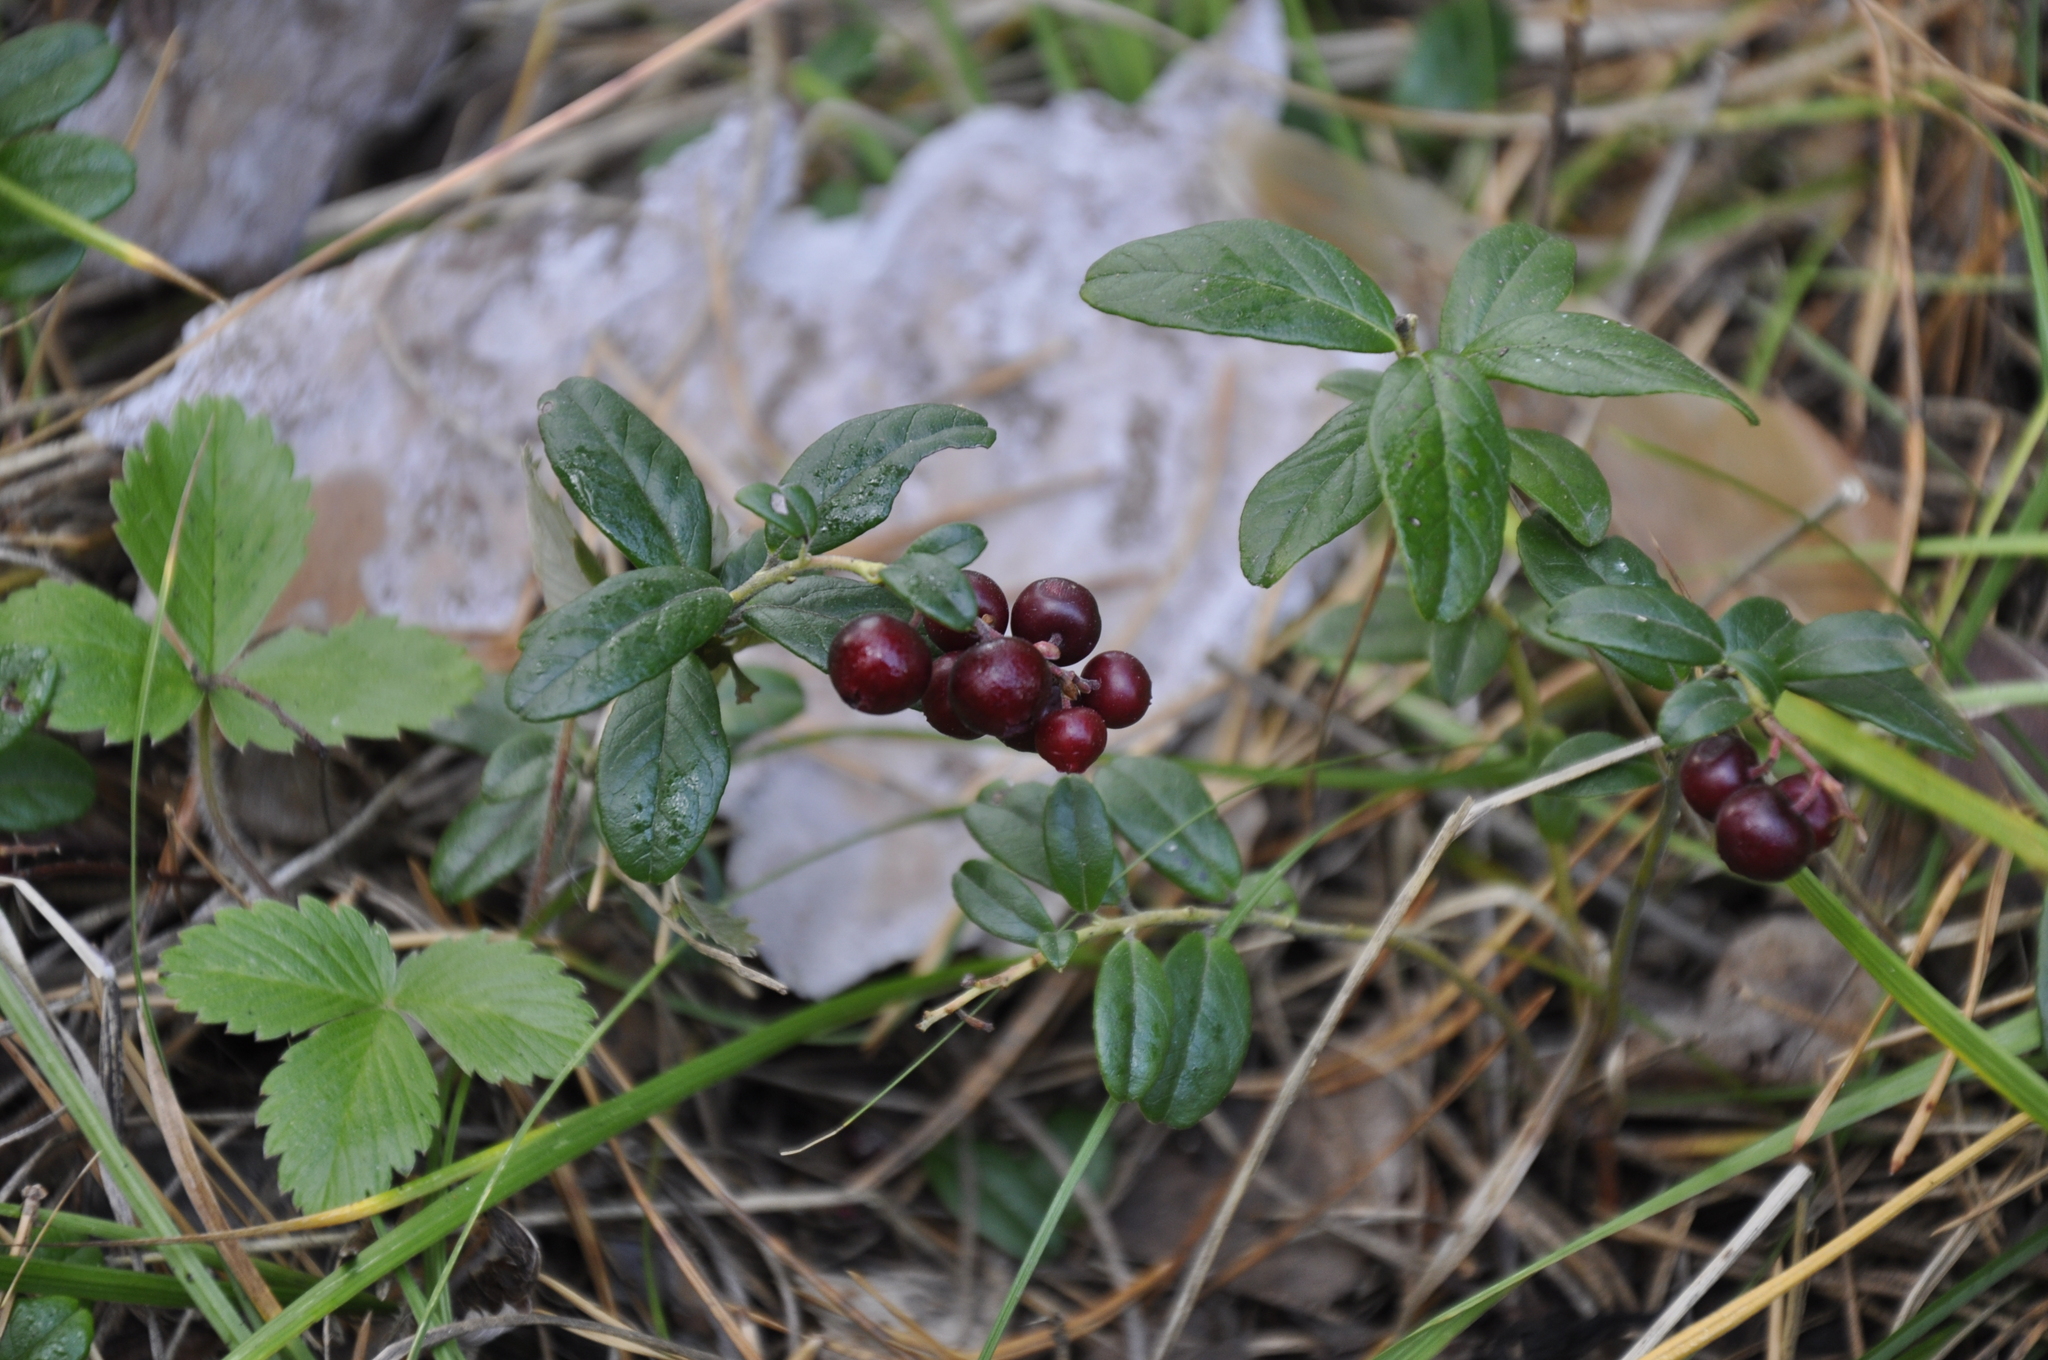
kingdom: Plantae
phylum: Tracheophyta
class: Magnoliopsida
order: Ericales
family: Ericaceae
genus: Vaccinium
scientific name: Vaccinium vitis-idaea
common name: Cowberry
